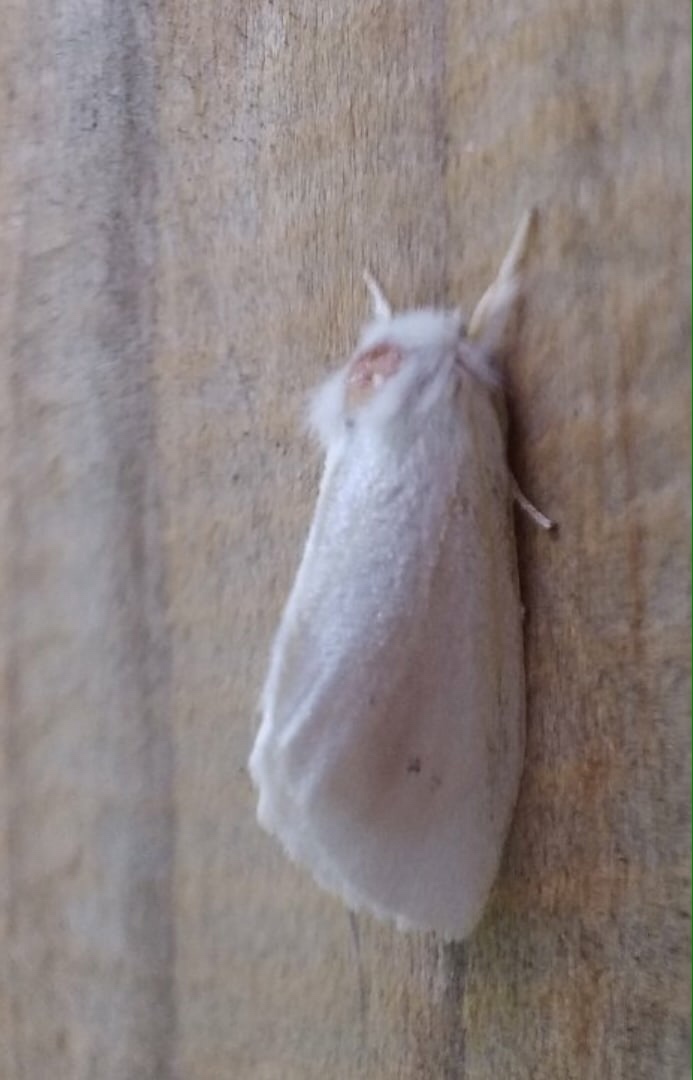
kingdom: Animalia
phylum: Arthropoda
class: Insecta
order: Lepidoptera
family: Erebidae
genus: Sphrageidus
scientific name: Sphrageidus similis
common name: Yellow-tail
